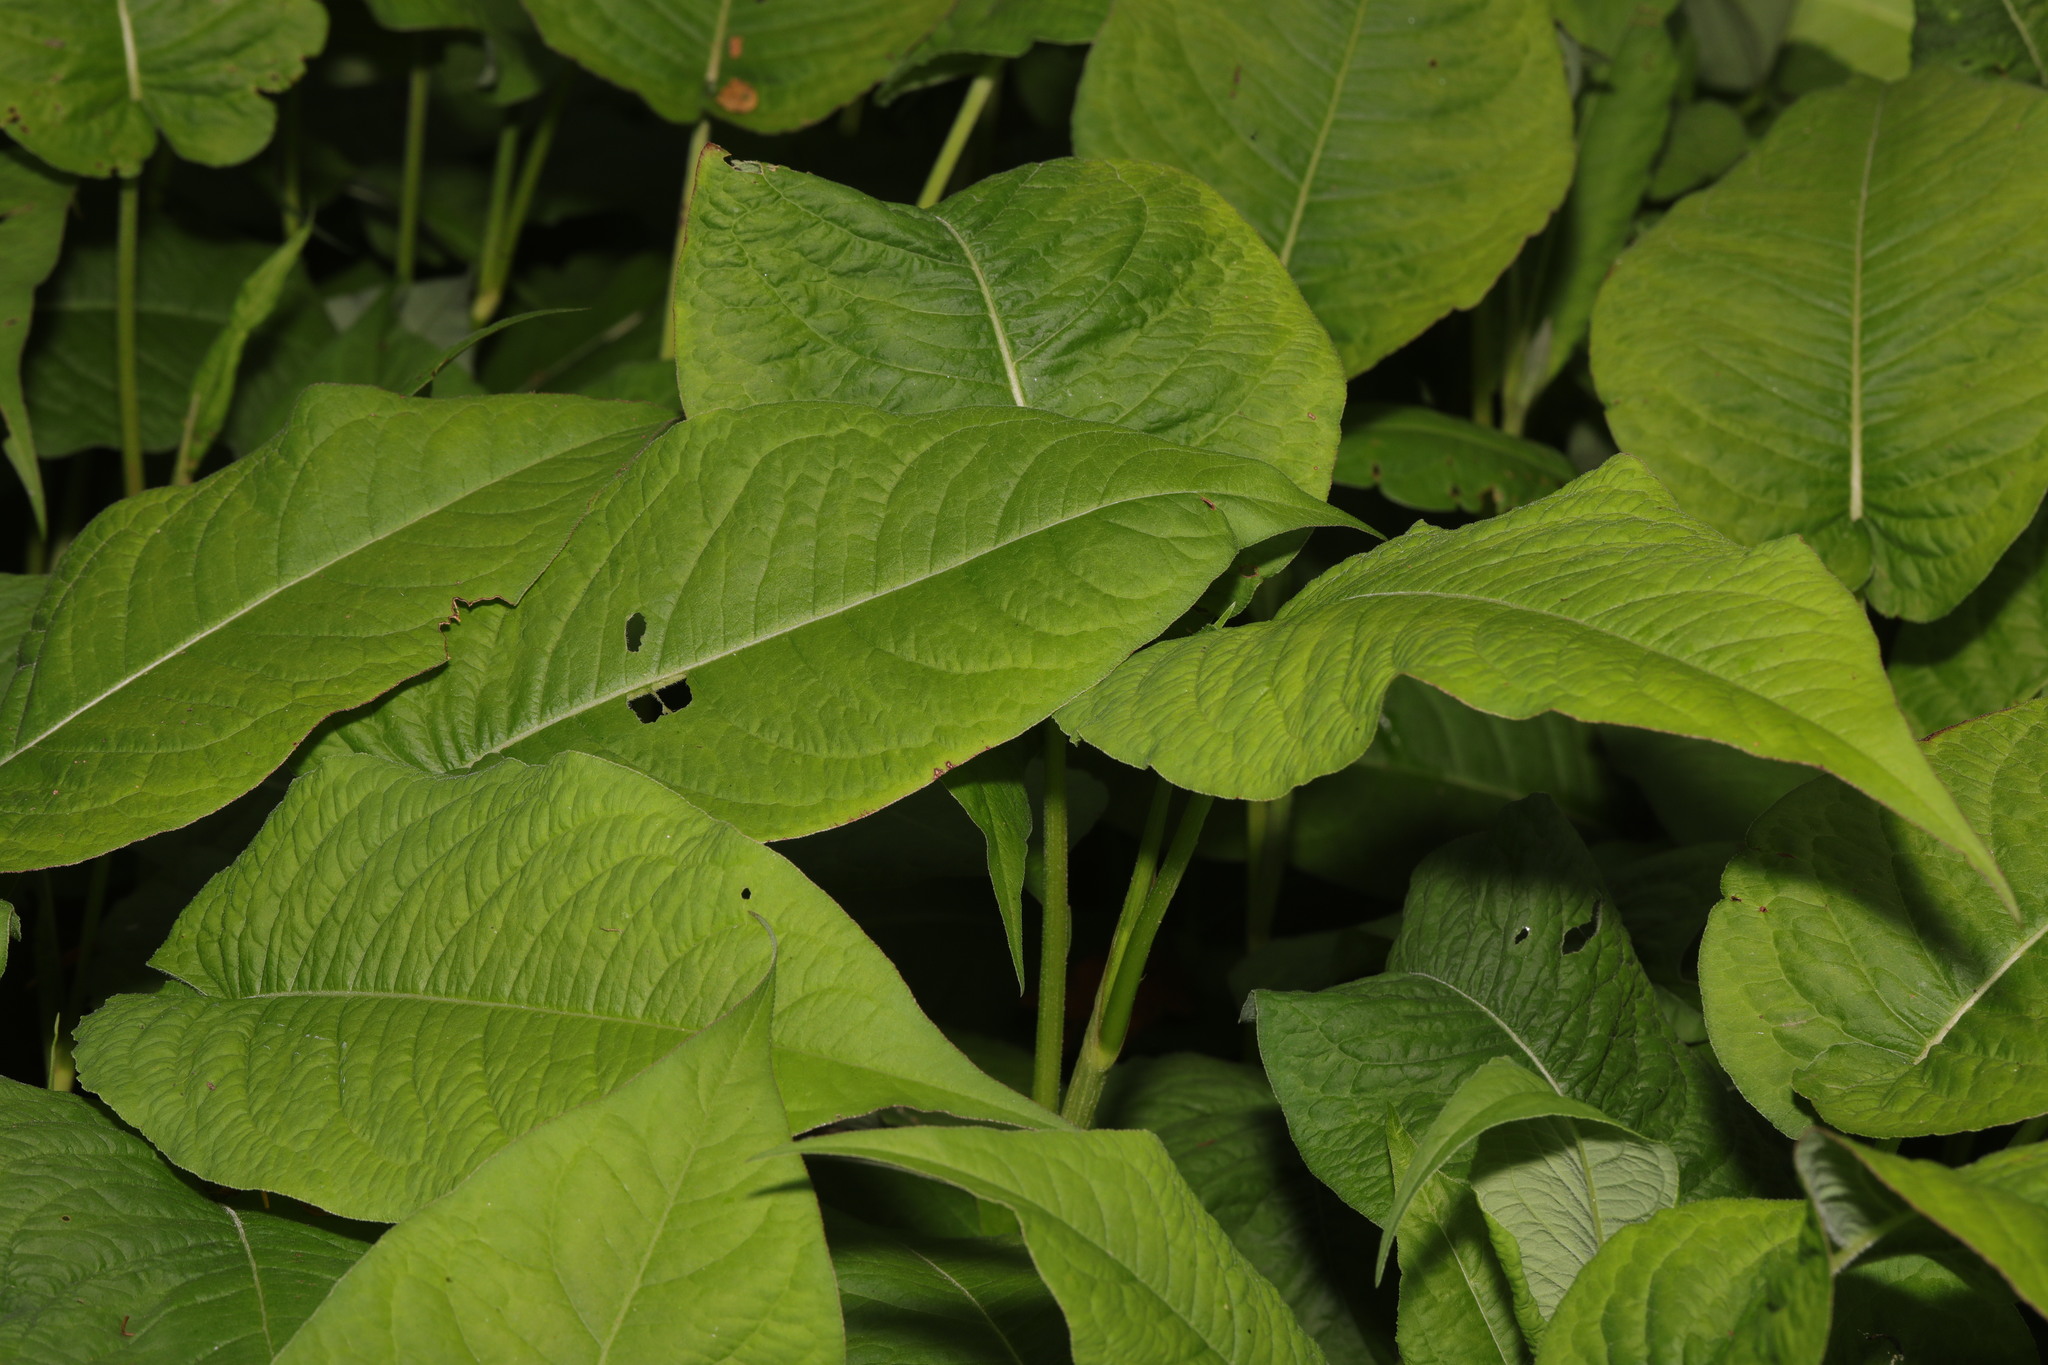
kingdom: Plantae
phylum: Tracheophyta
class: Magnoliopsida
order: Caryophyllales
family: Polygonaceae
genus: Bistorta
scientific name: Bistorta amplexicaulis
